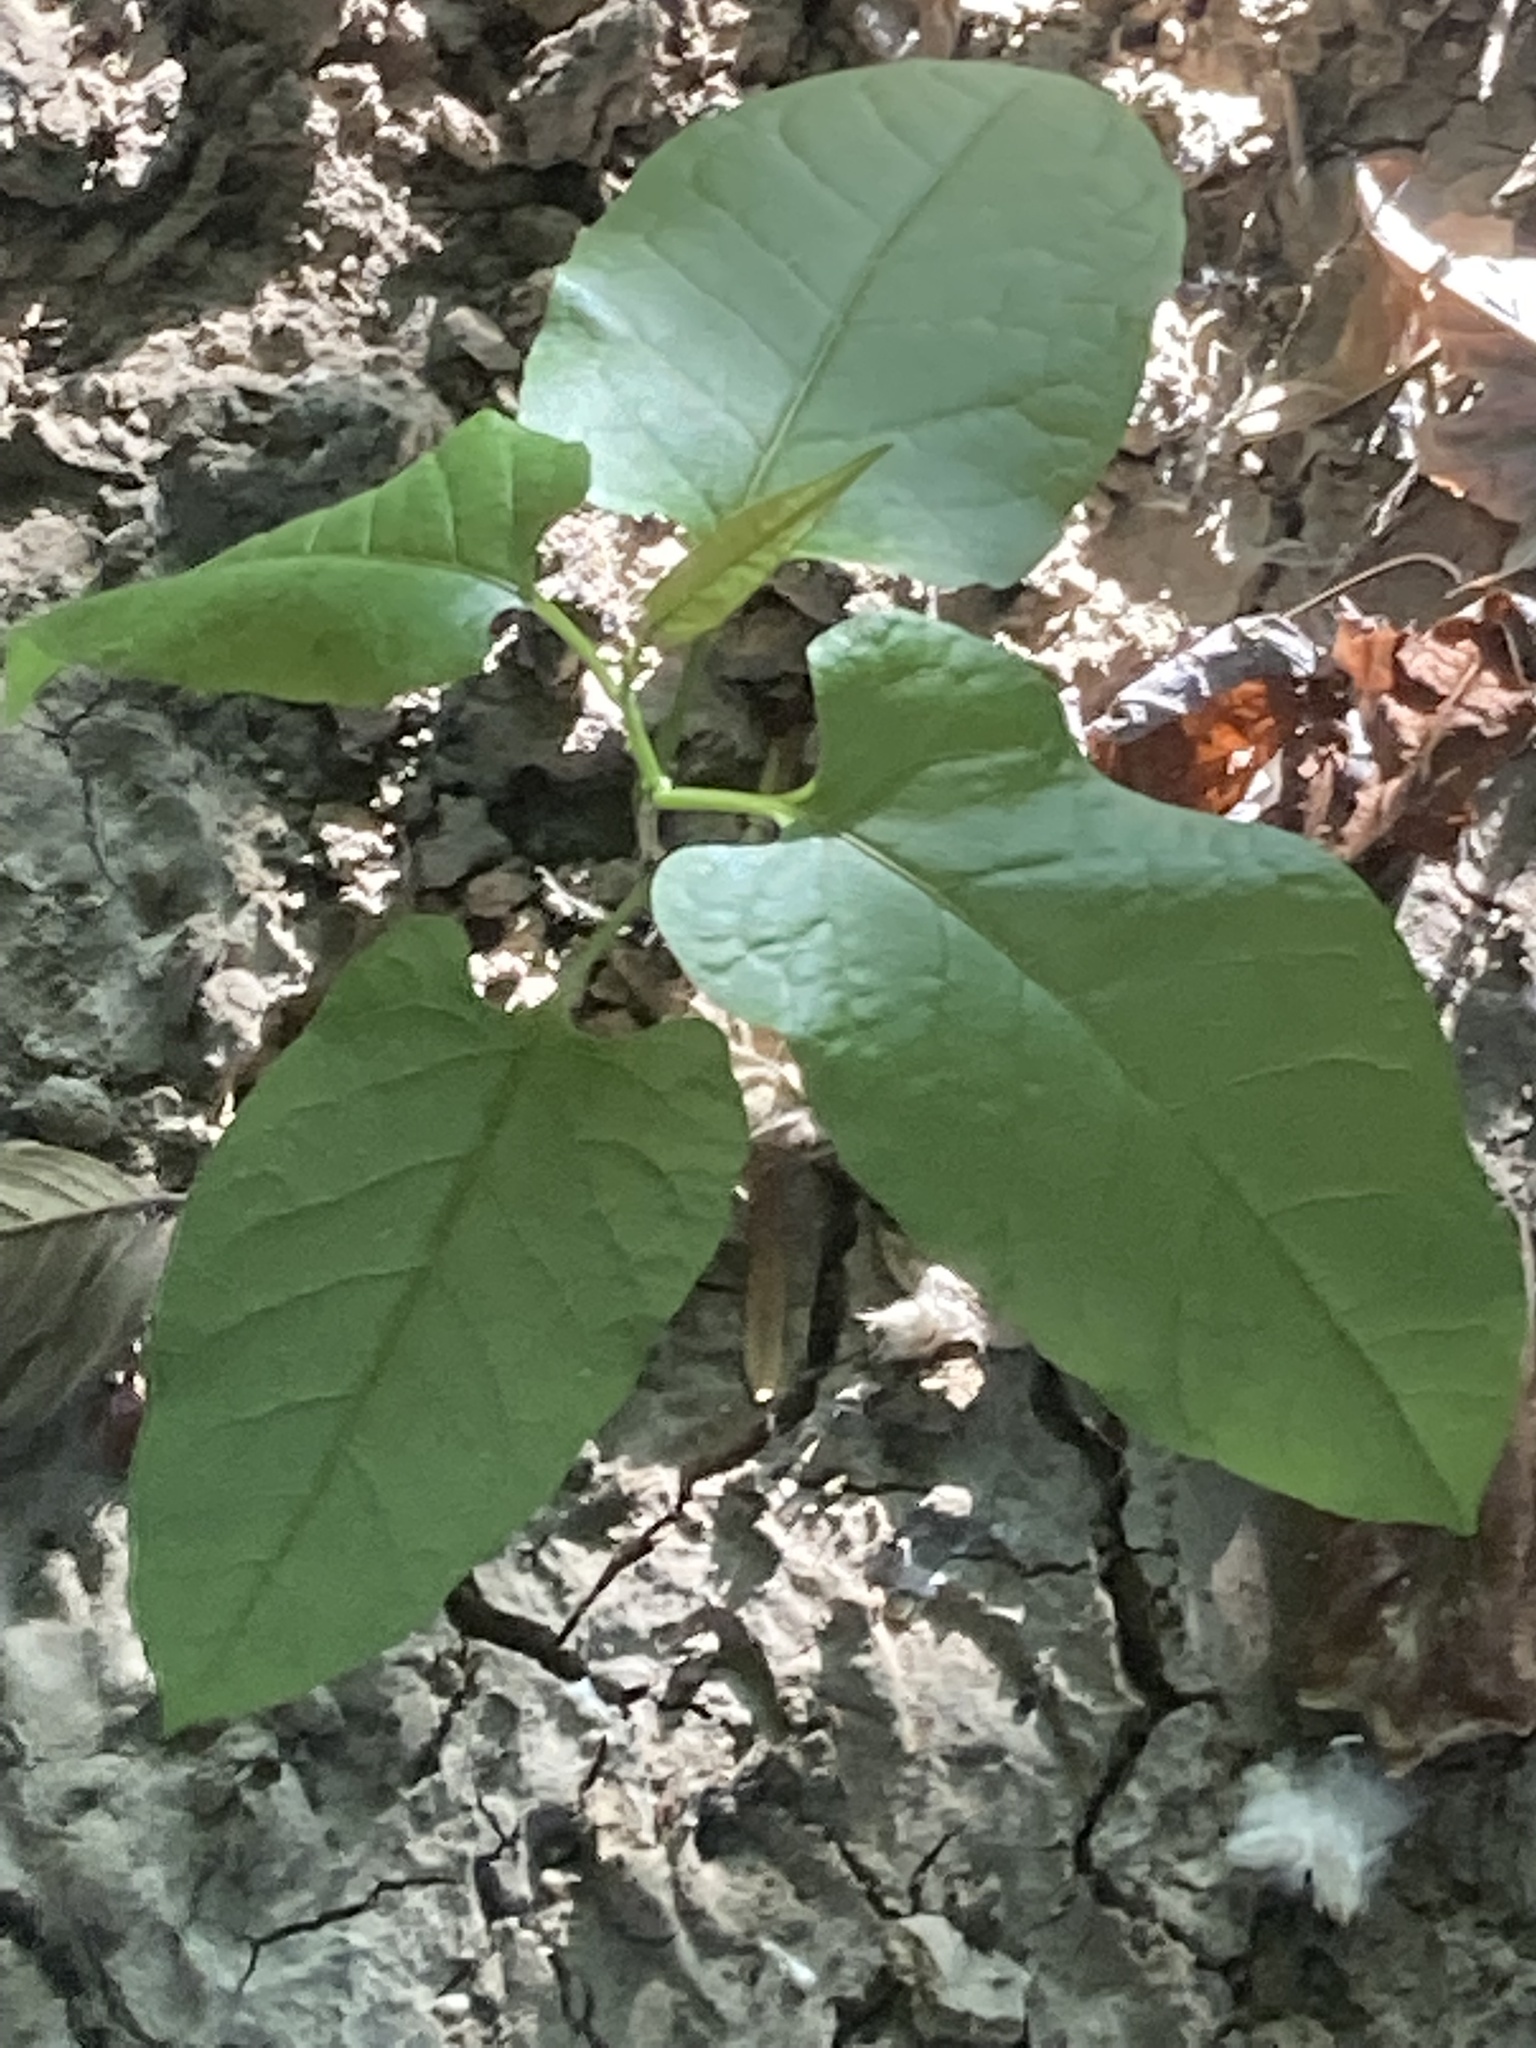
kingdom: Plantae
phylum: Tracheophyta
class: Magnoliopsida
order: Caryophyllales
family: Polygonaceae
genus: Brunnichia
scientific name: Brunnichia ovata
